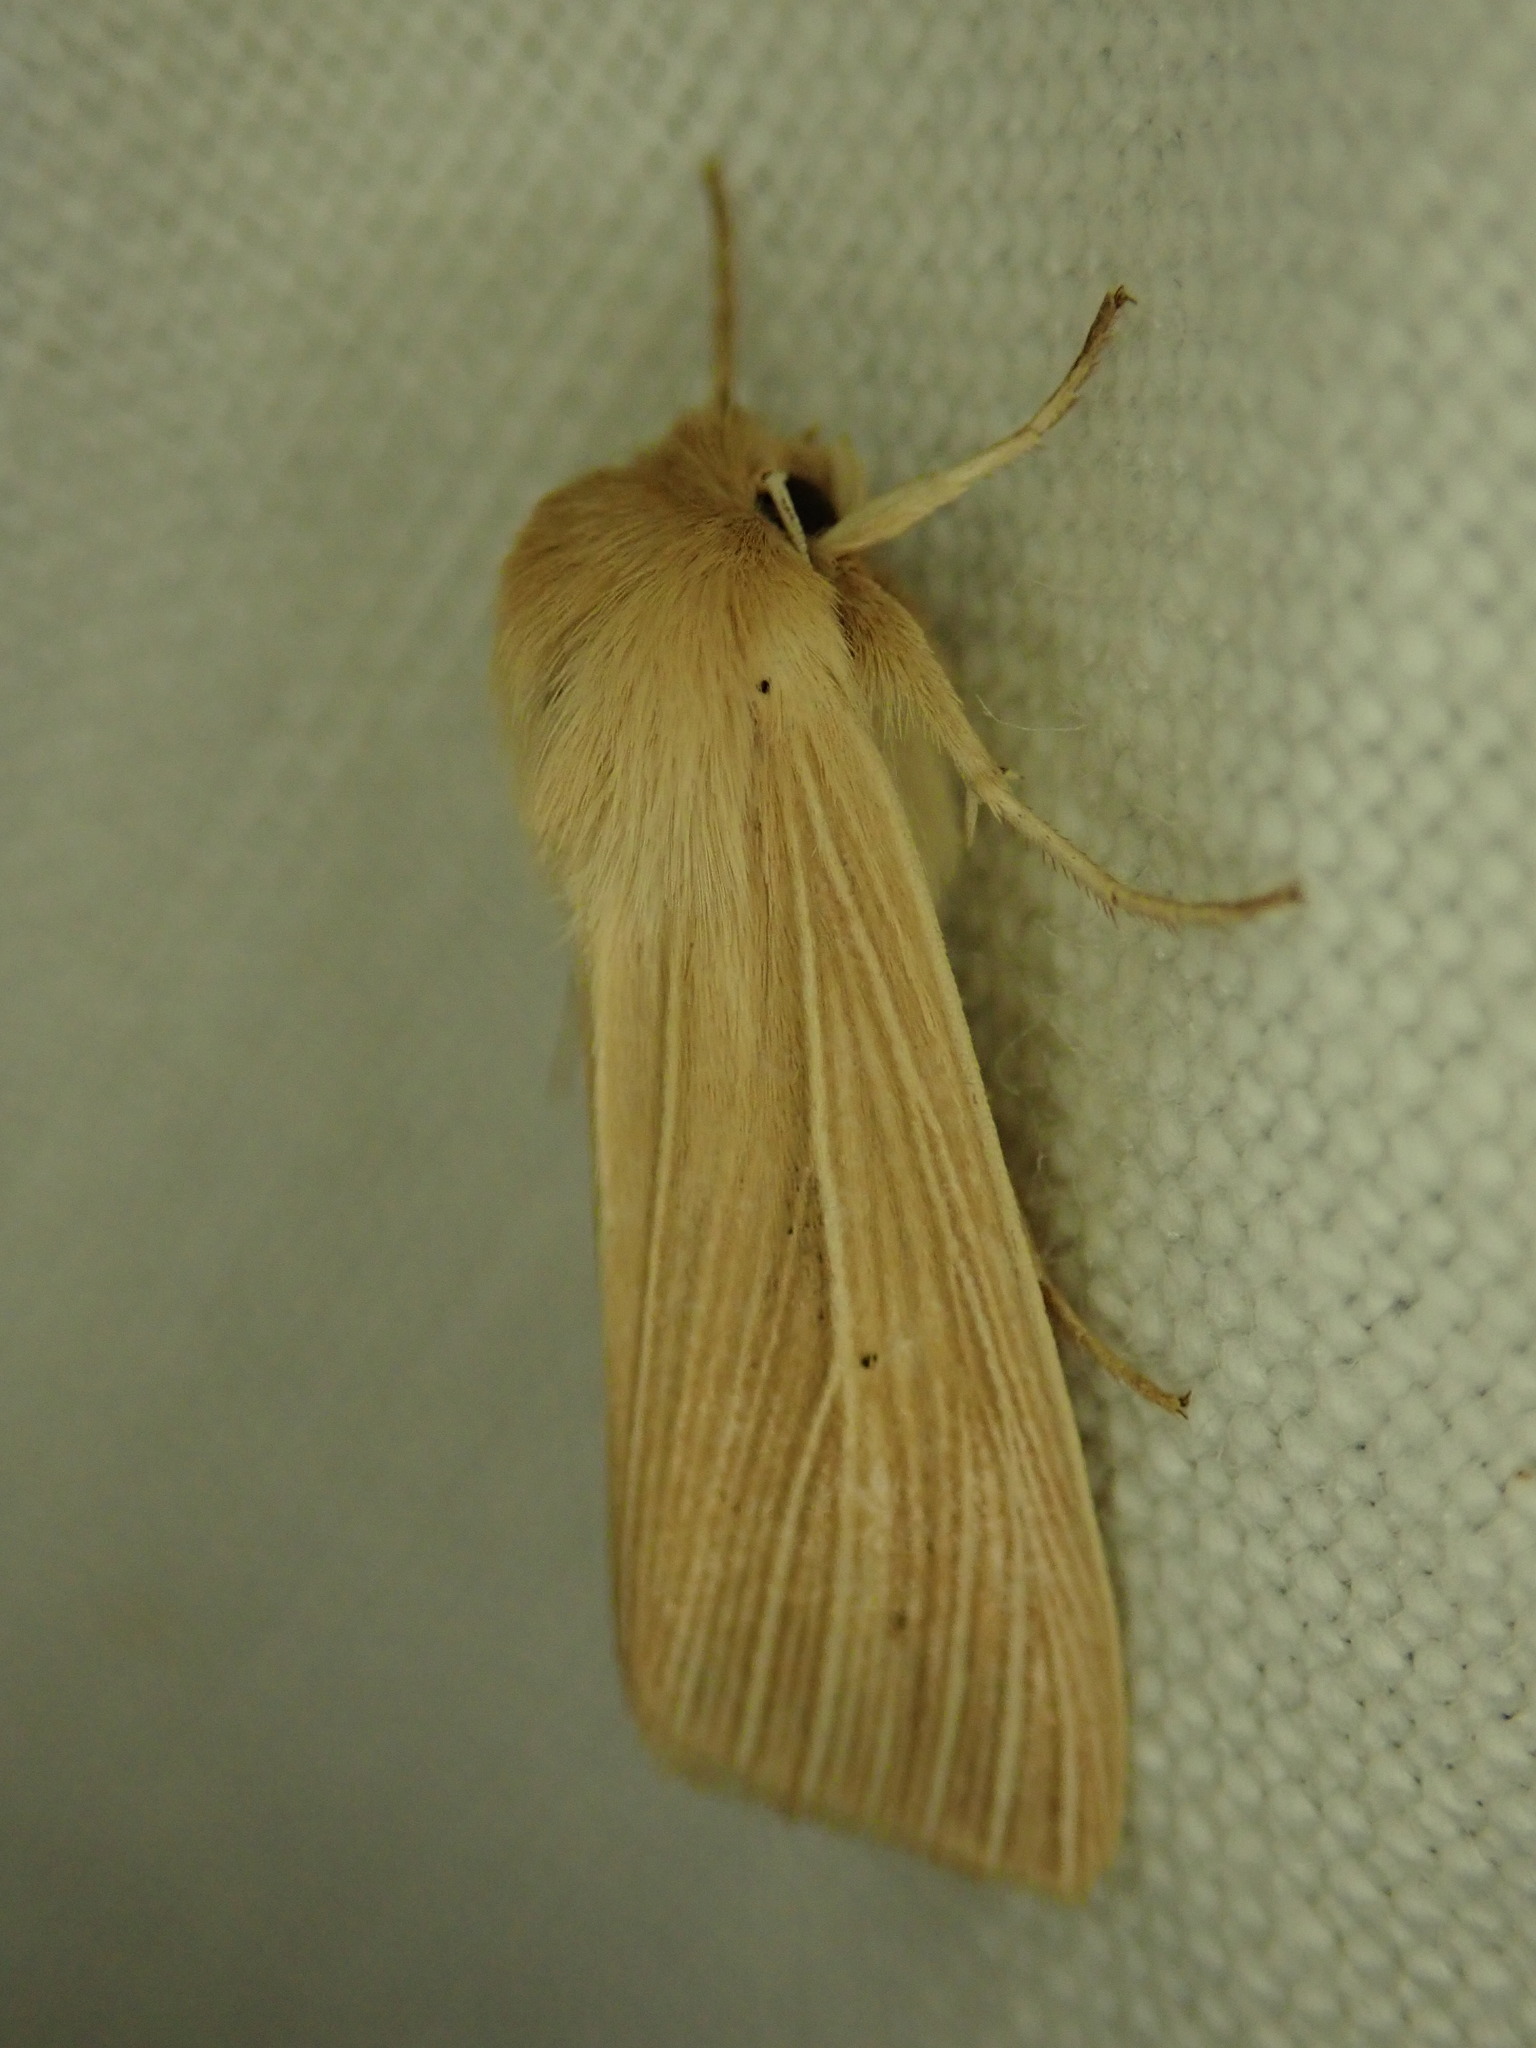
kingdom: Animalia
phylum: Arthropoda
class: Insecta
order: Lepidoptera
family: Noctuidae
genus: Mythimna
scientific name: Mythimna pallens
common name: Common wainscot
